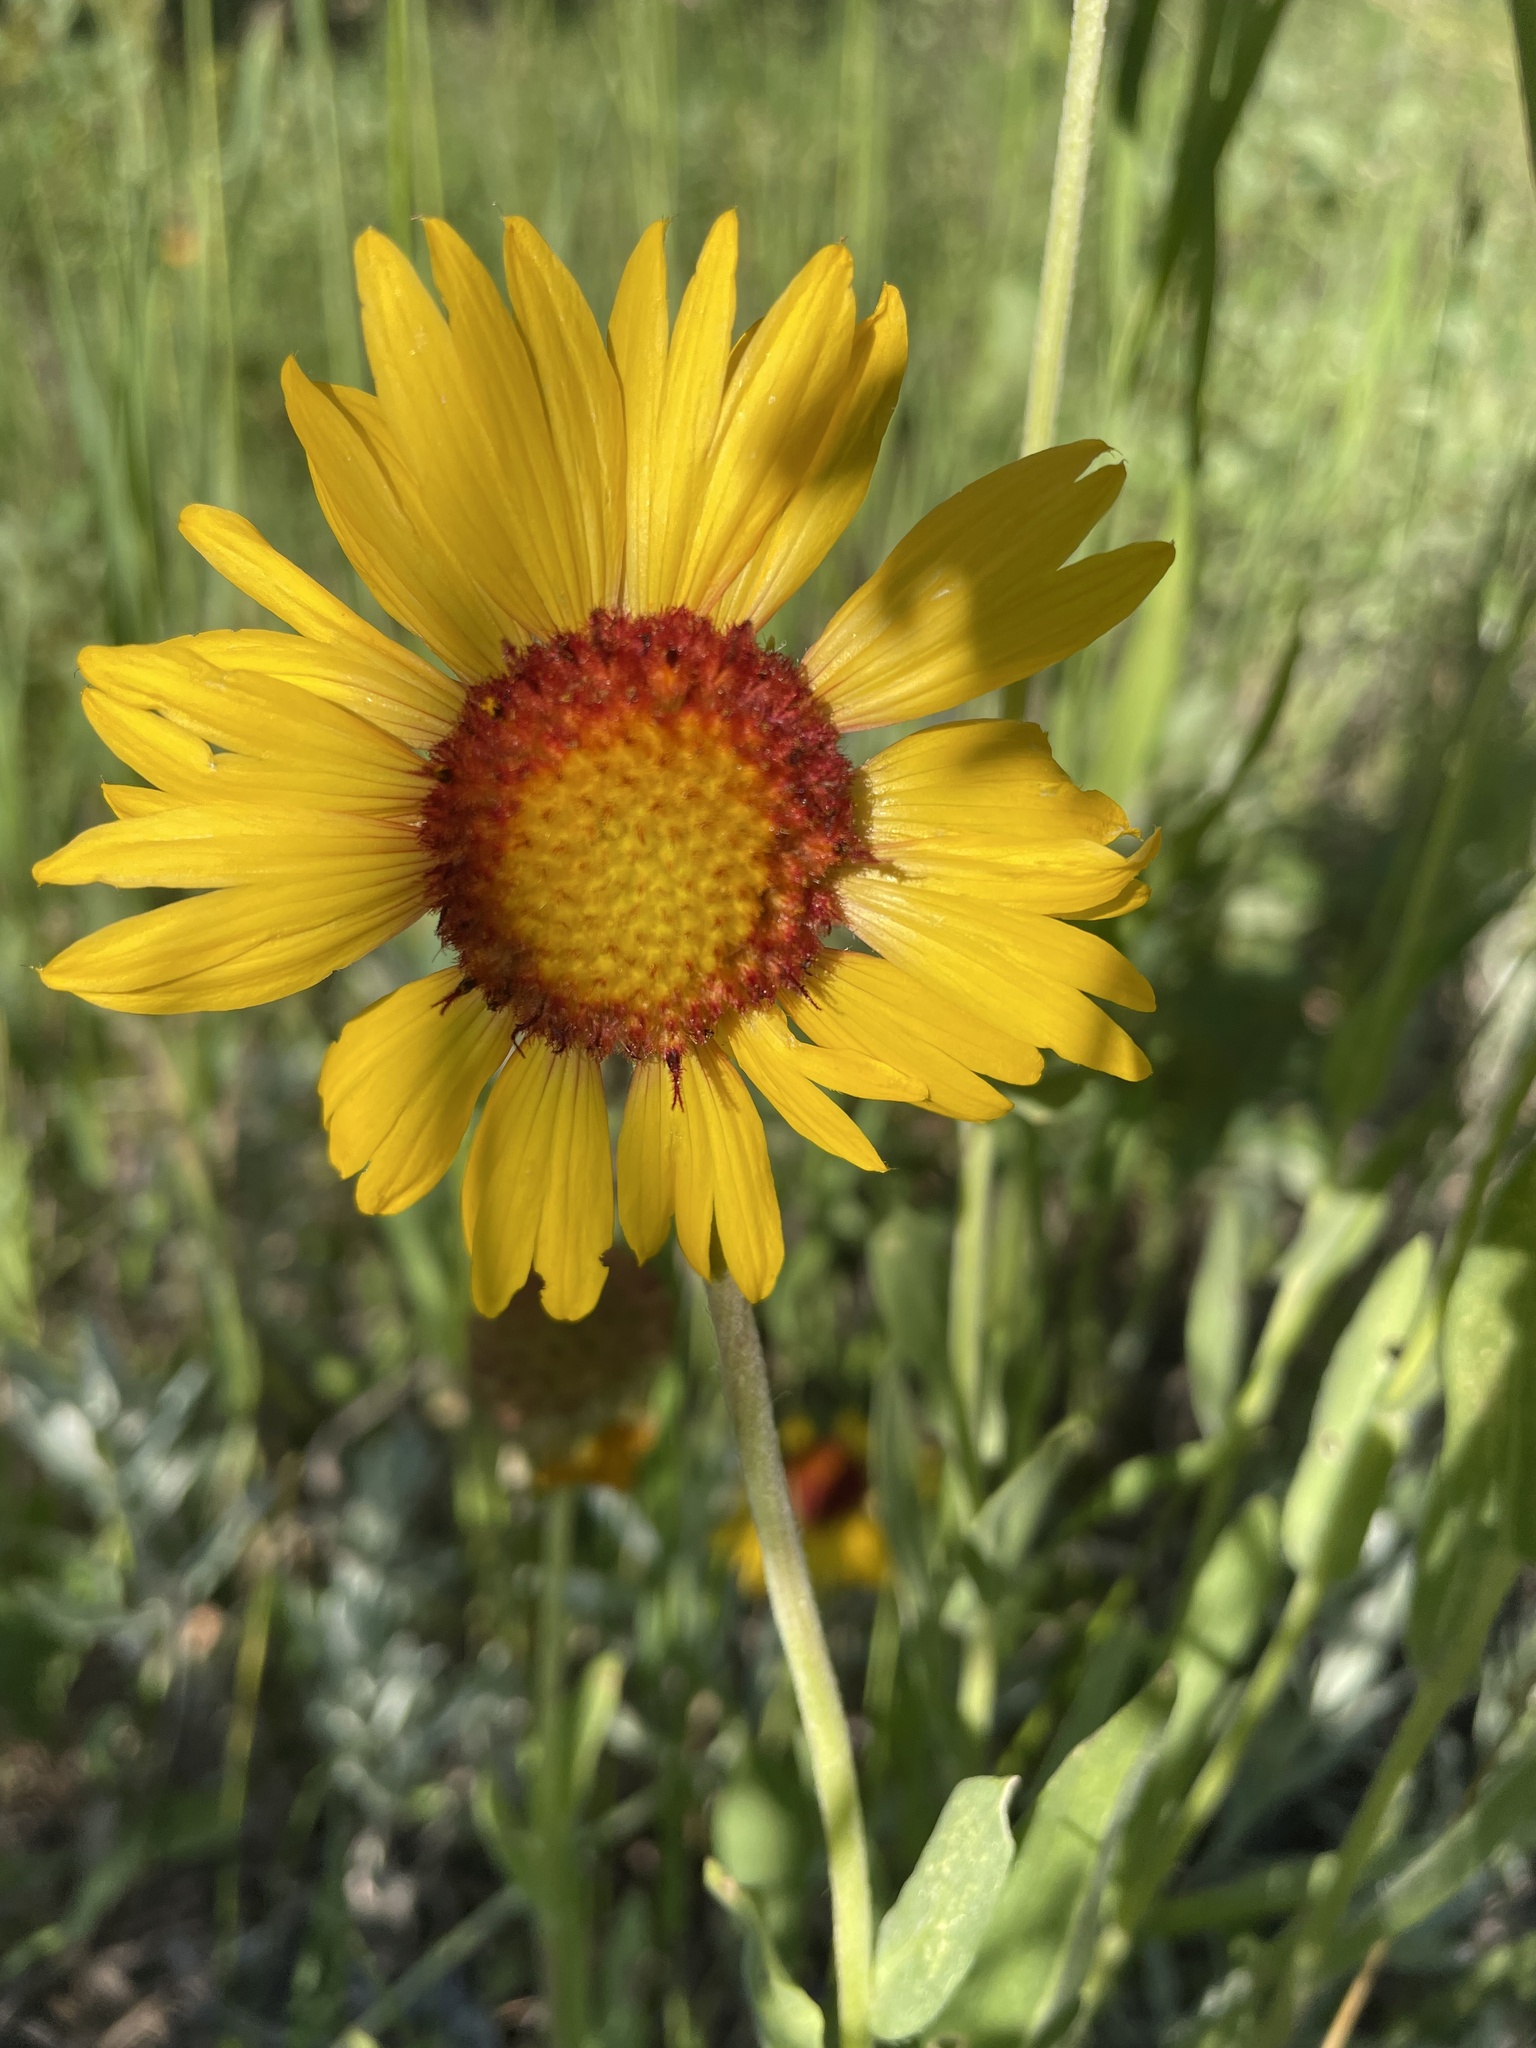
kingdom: Plantae
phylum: Tracheophyta
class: Magnoliopsida
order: Asterales
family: Asteraceae
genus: Gaillardia
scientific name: Gaillardia aristata
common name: Blanket-flower
